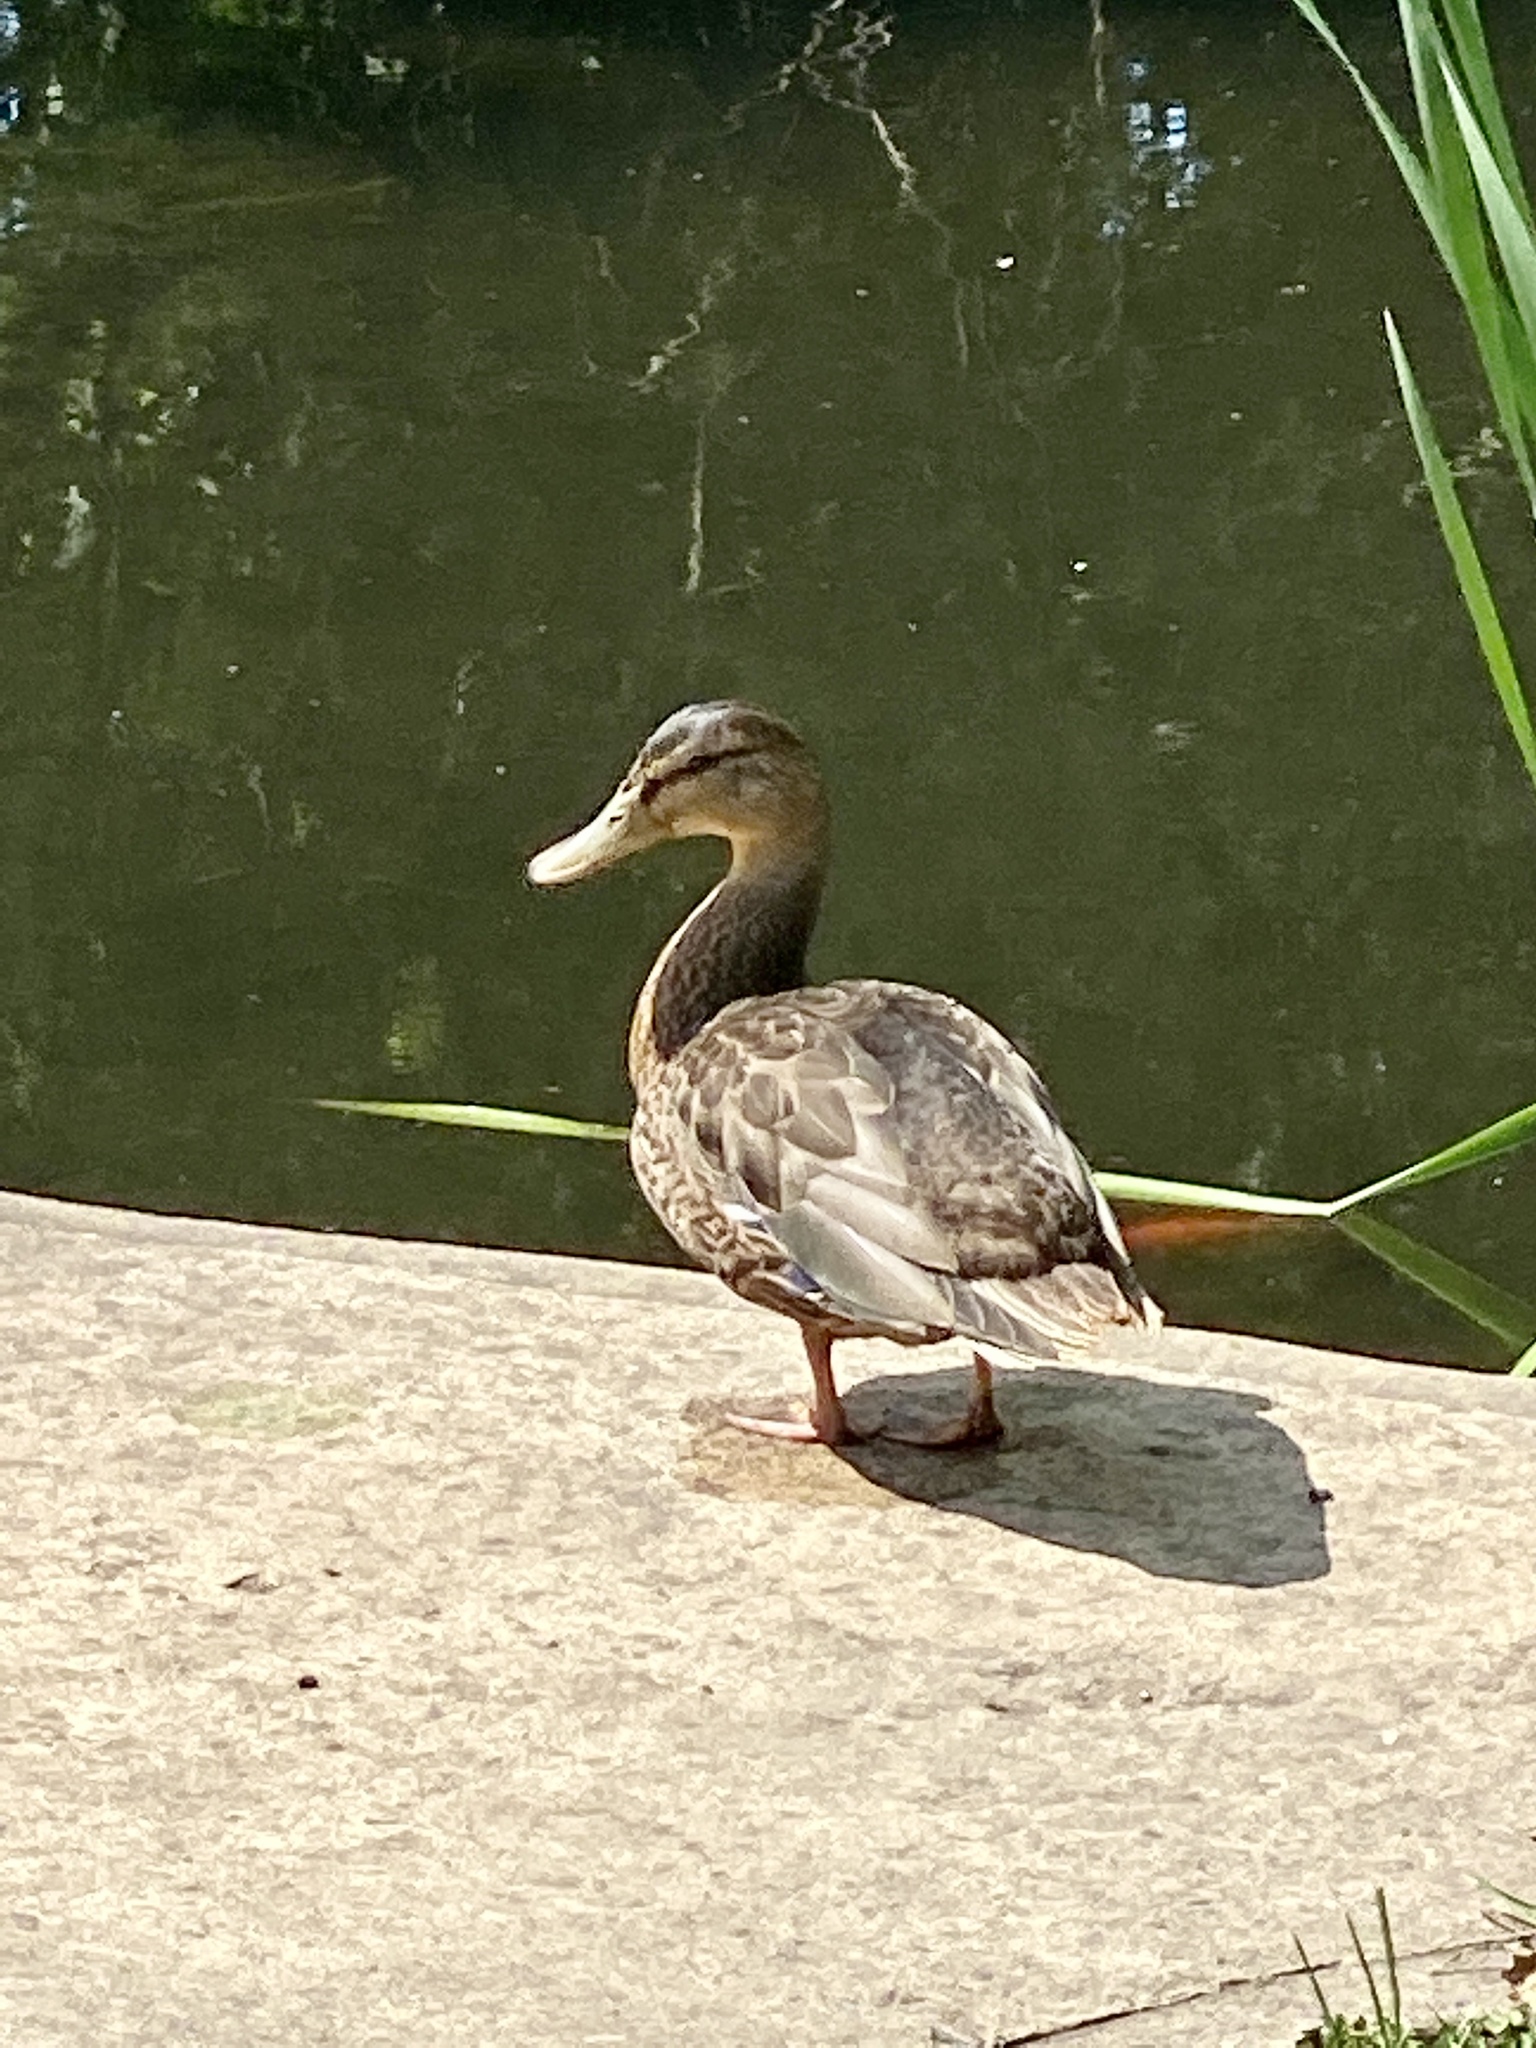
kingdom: Animalia
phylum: Chordata
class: Aves
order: Anseriformes
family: Anatidae
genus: Anas
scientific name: Anas platyrhynchos
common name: Mallard
